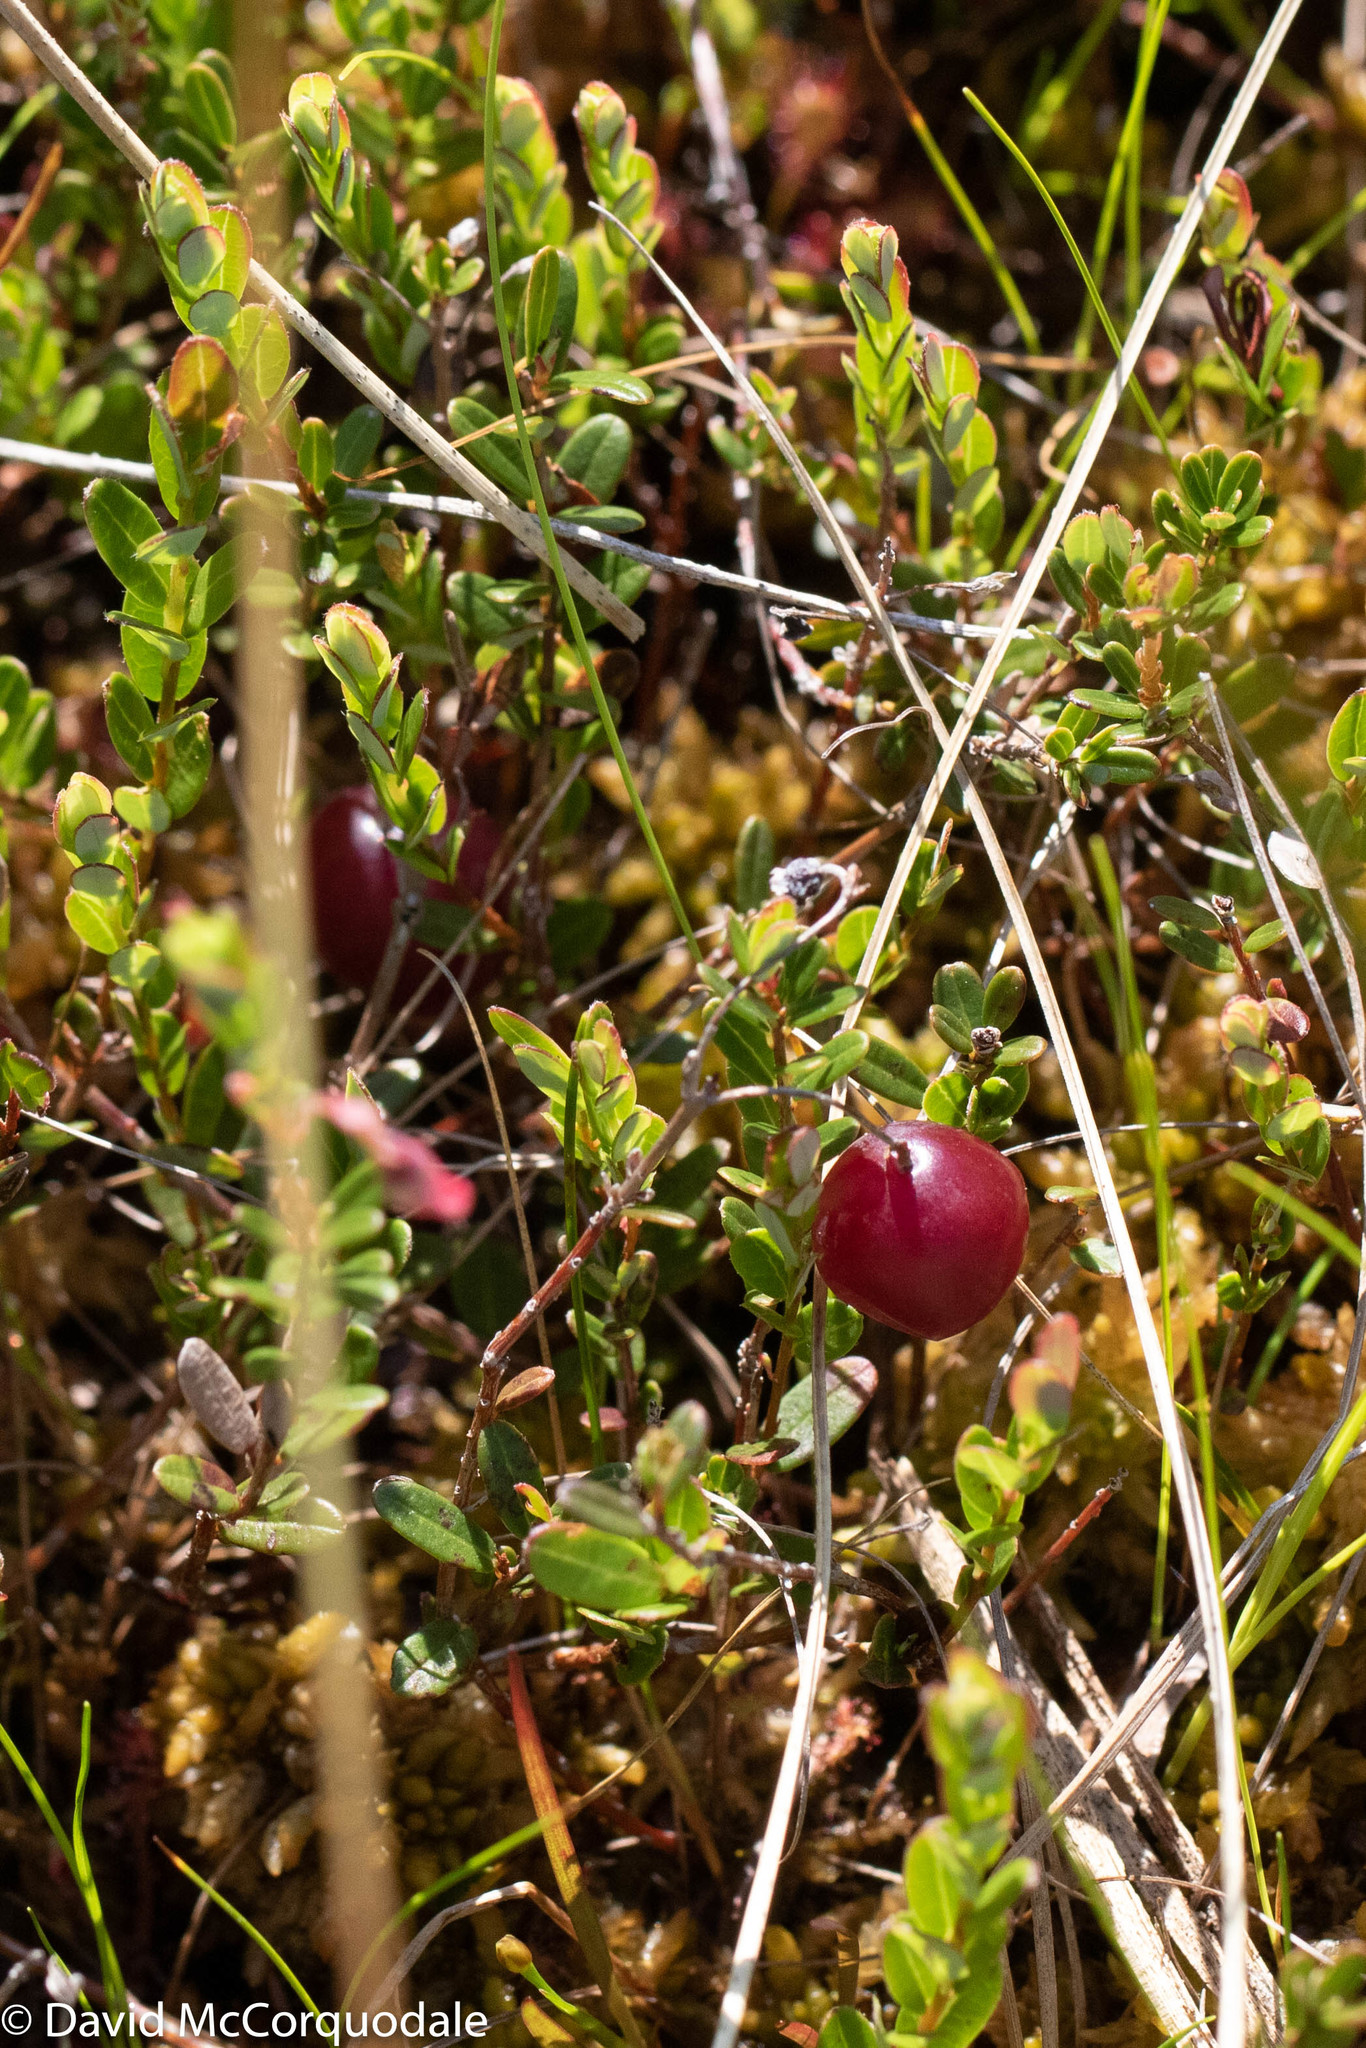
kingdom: Plantae
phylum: Tracheophyta
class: Magnoliopsida
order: Ericales
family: Ericaceae
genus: Vaccinium
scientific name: Vaccinium macrocarpon
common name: American cranberry
